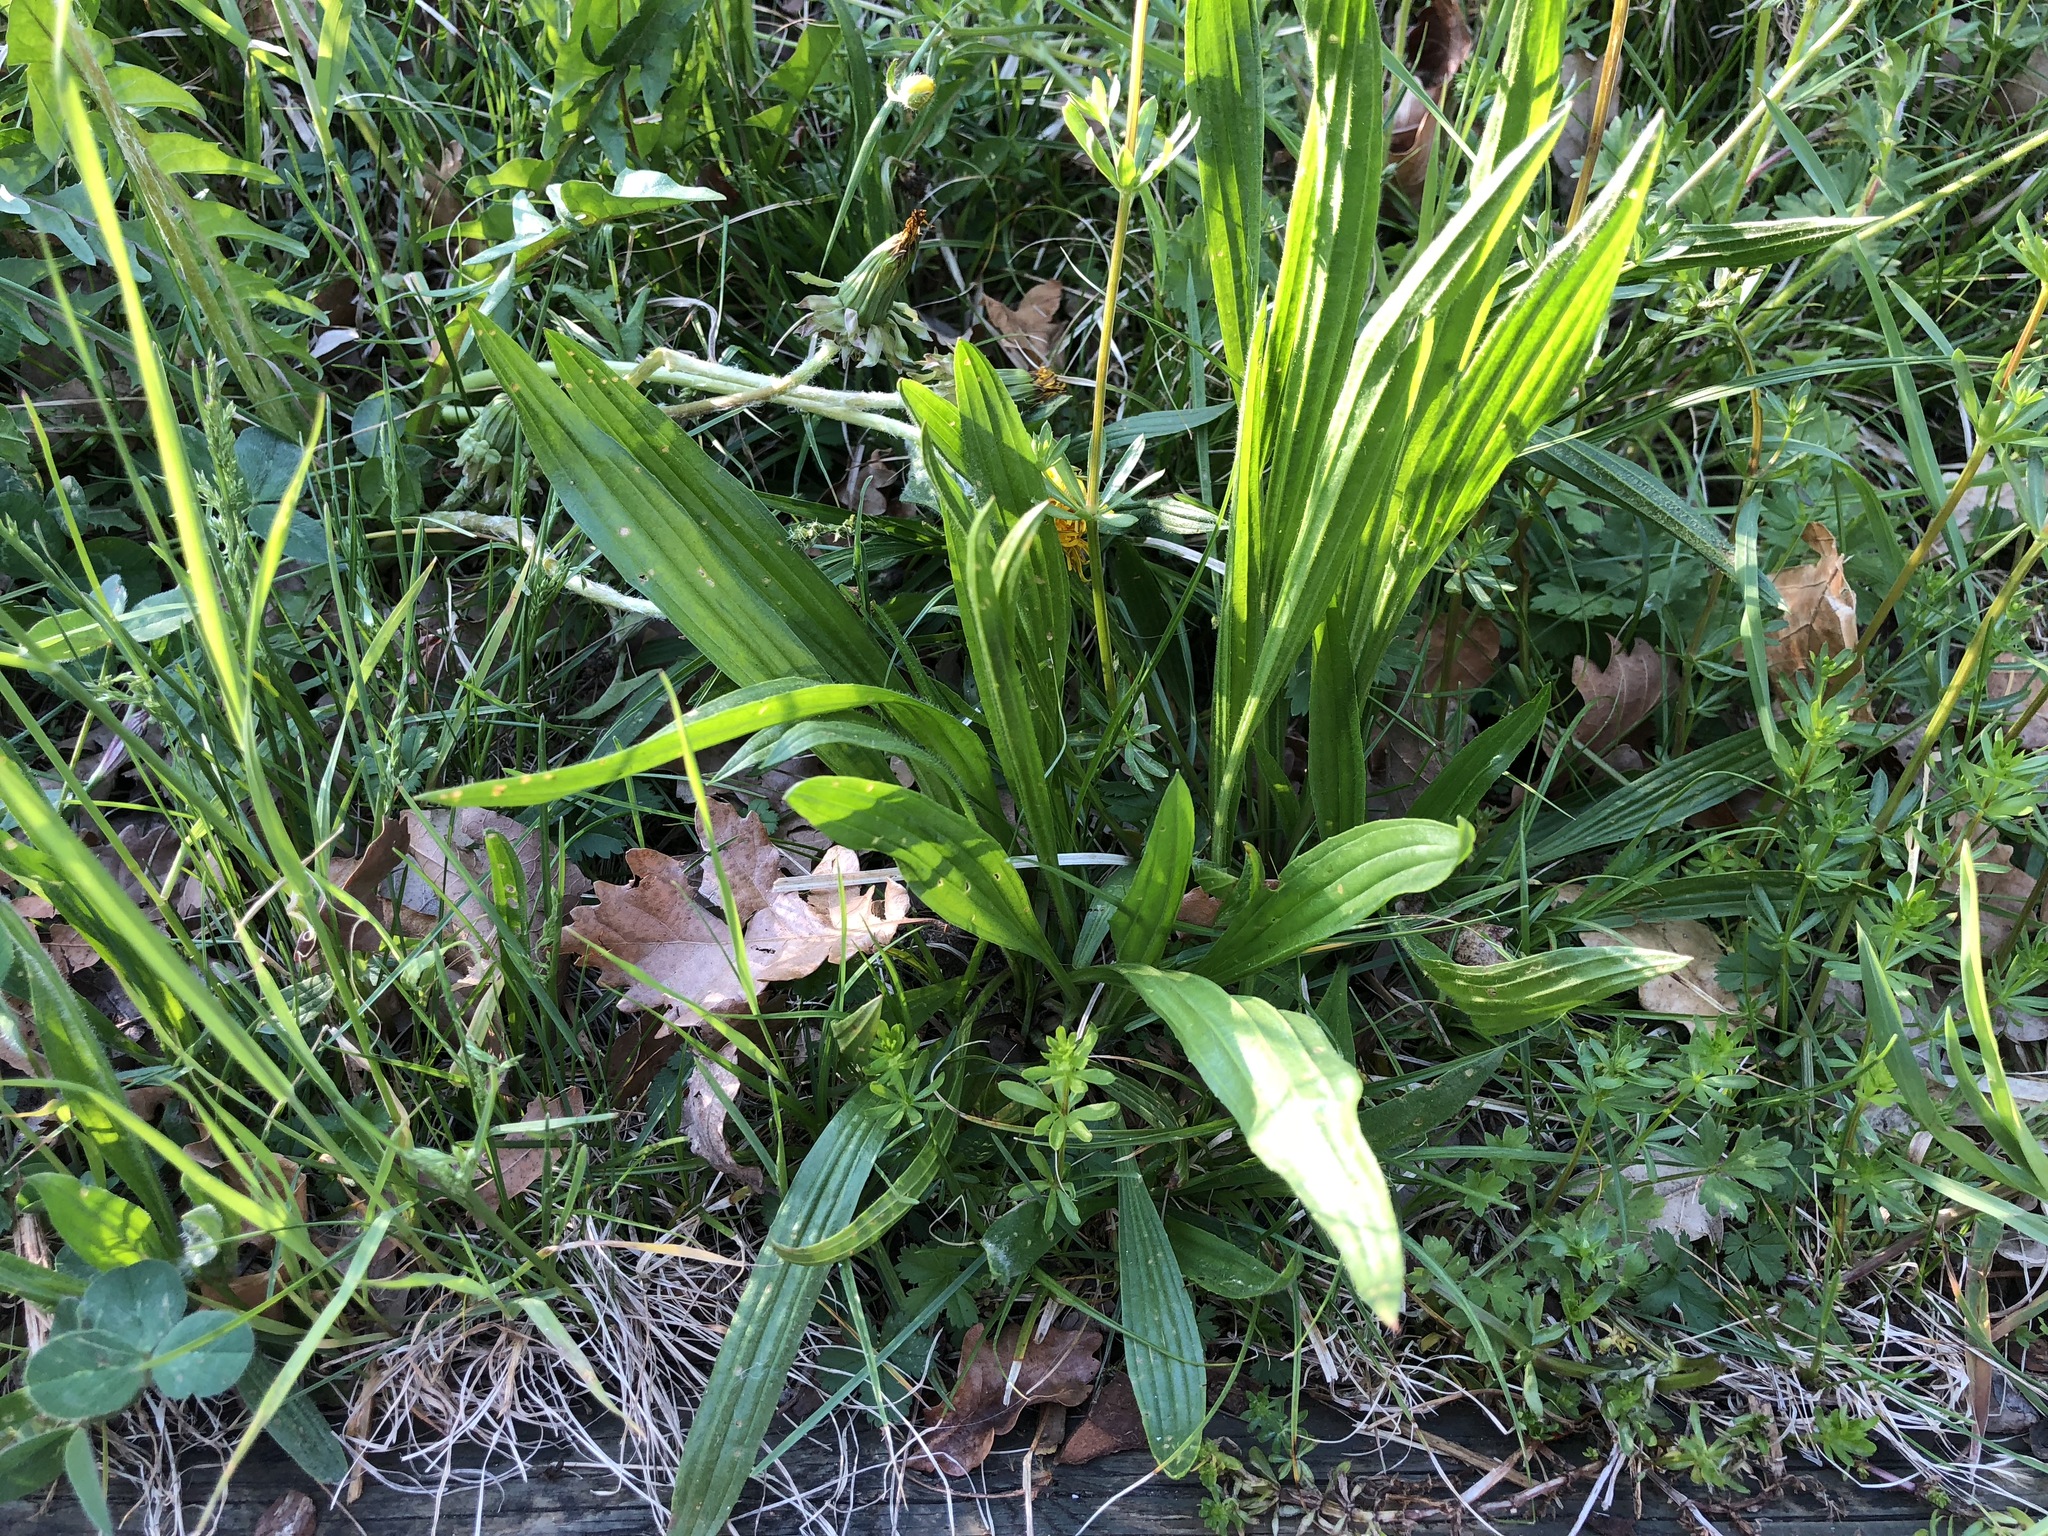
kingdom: Plantae
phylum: Tracheophyta
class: Magnoliopsida
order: Lamiales
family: Plantaginaceae
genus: Plantago
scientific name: Plantago lanceolata
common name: Ribwort plantain
